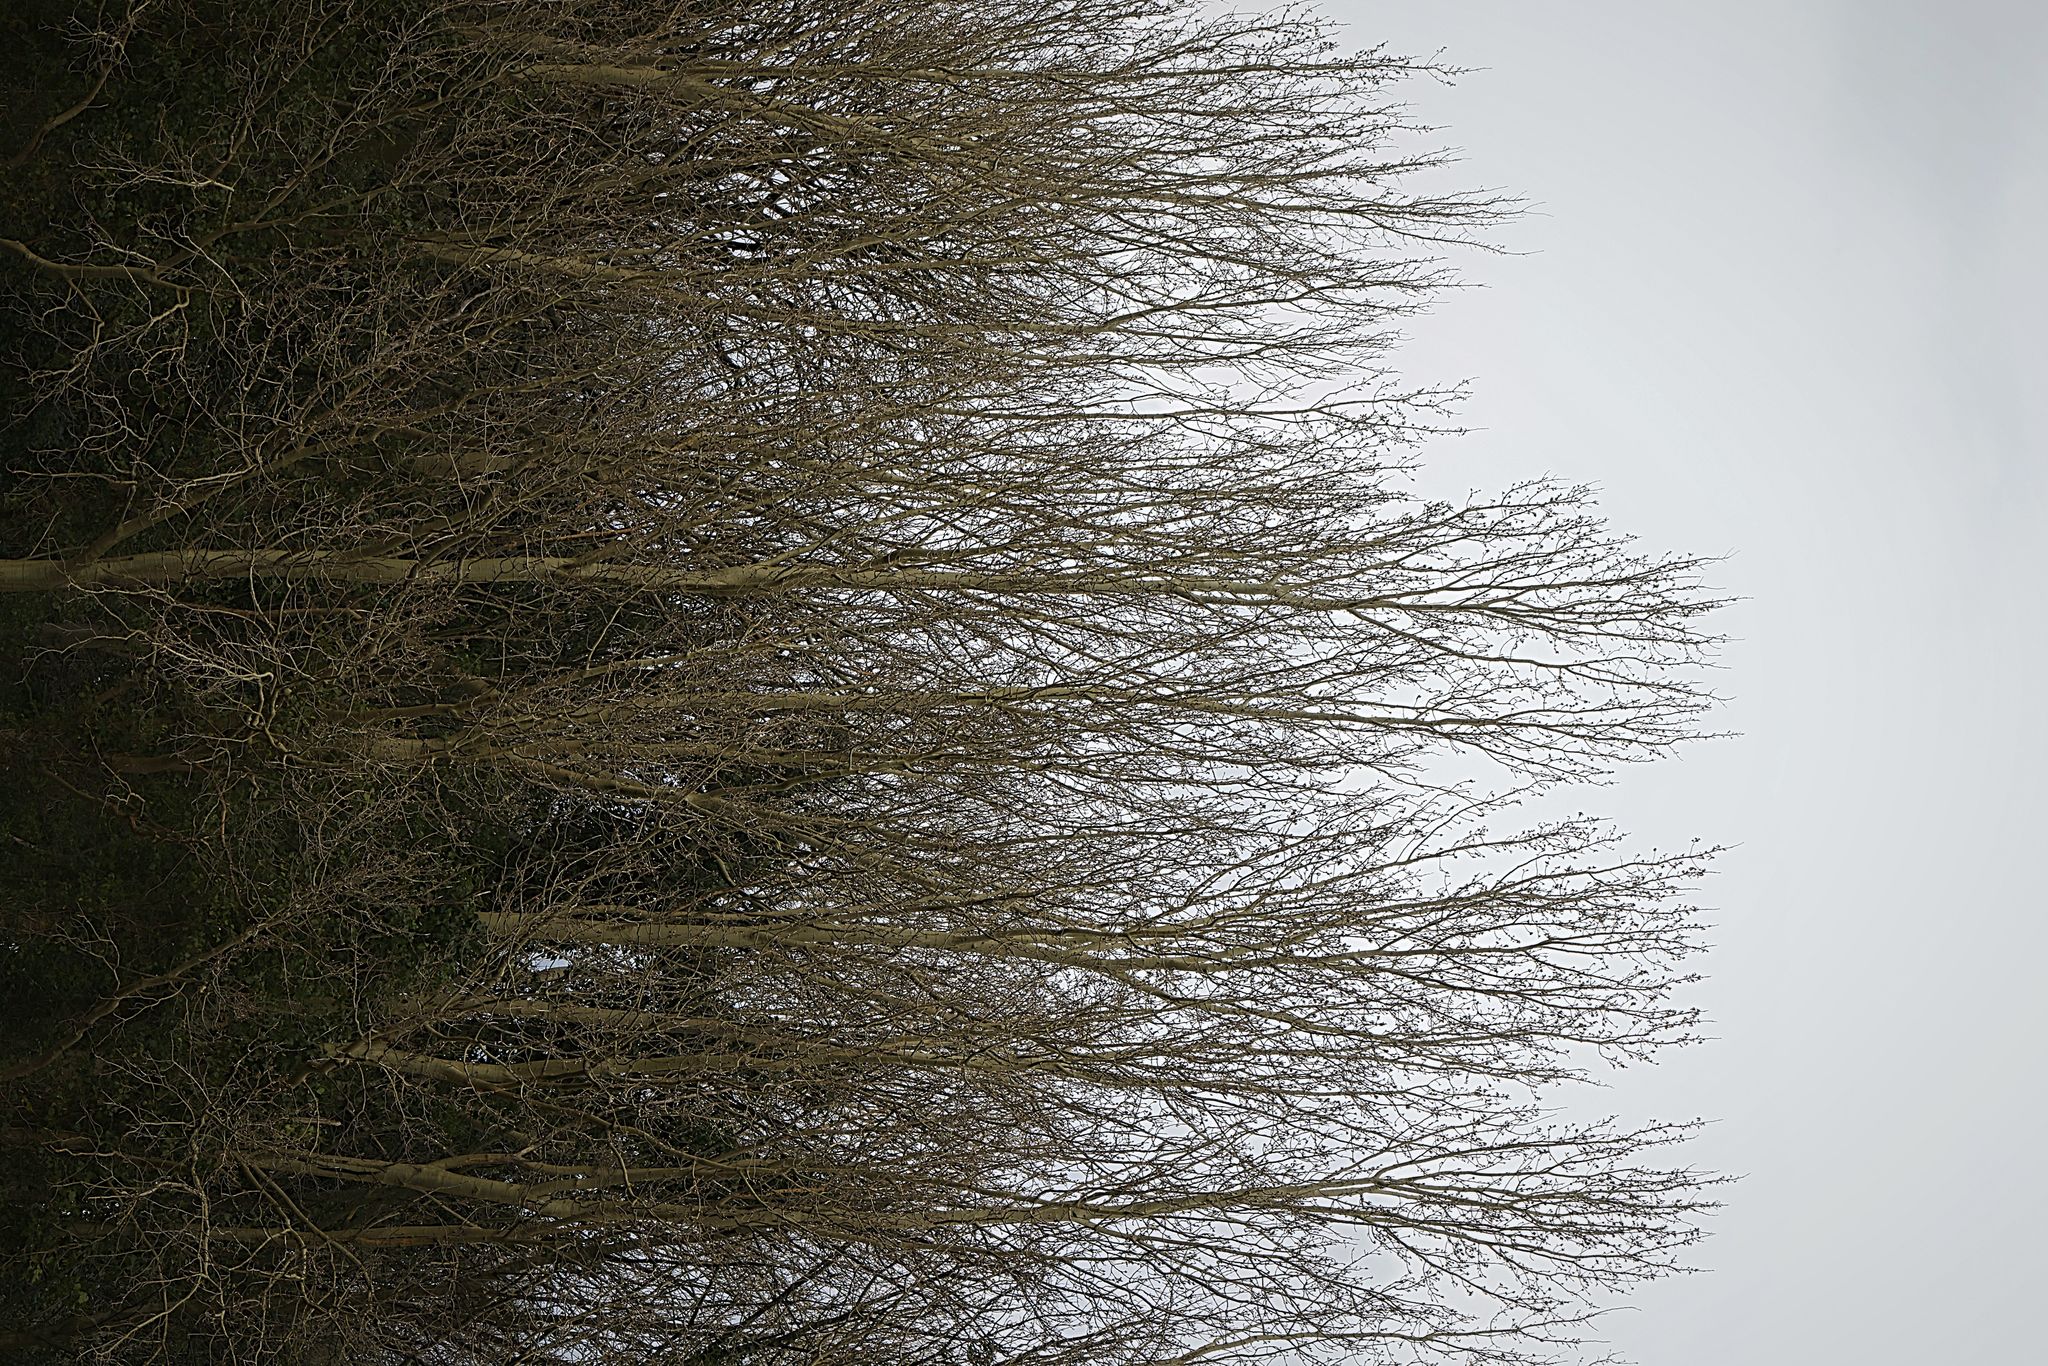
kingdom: Plantae
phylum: Tracheophyta
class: Magnoliopsida
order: Malpighiales
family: Salicaceae
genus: Populus
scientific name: Populus nigra
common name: Black poplar
